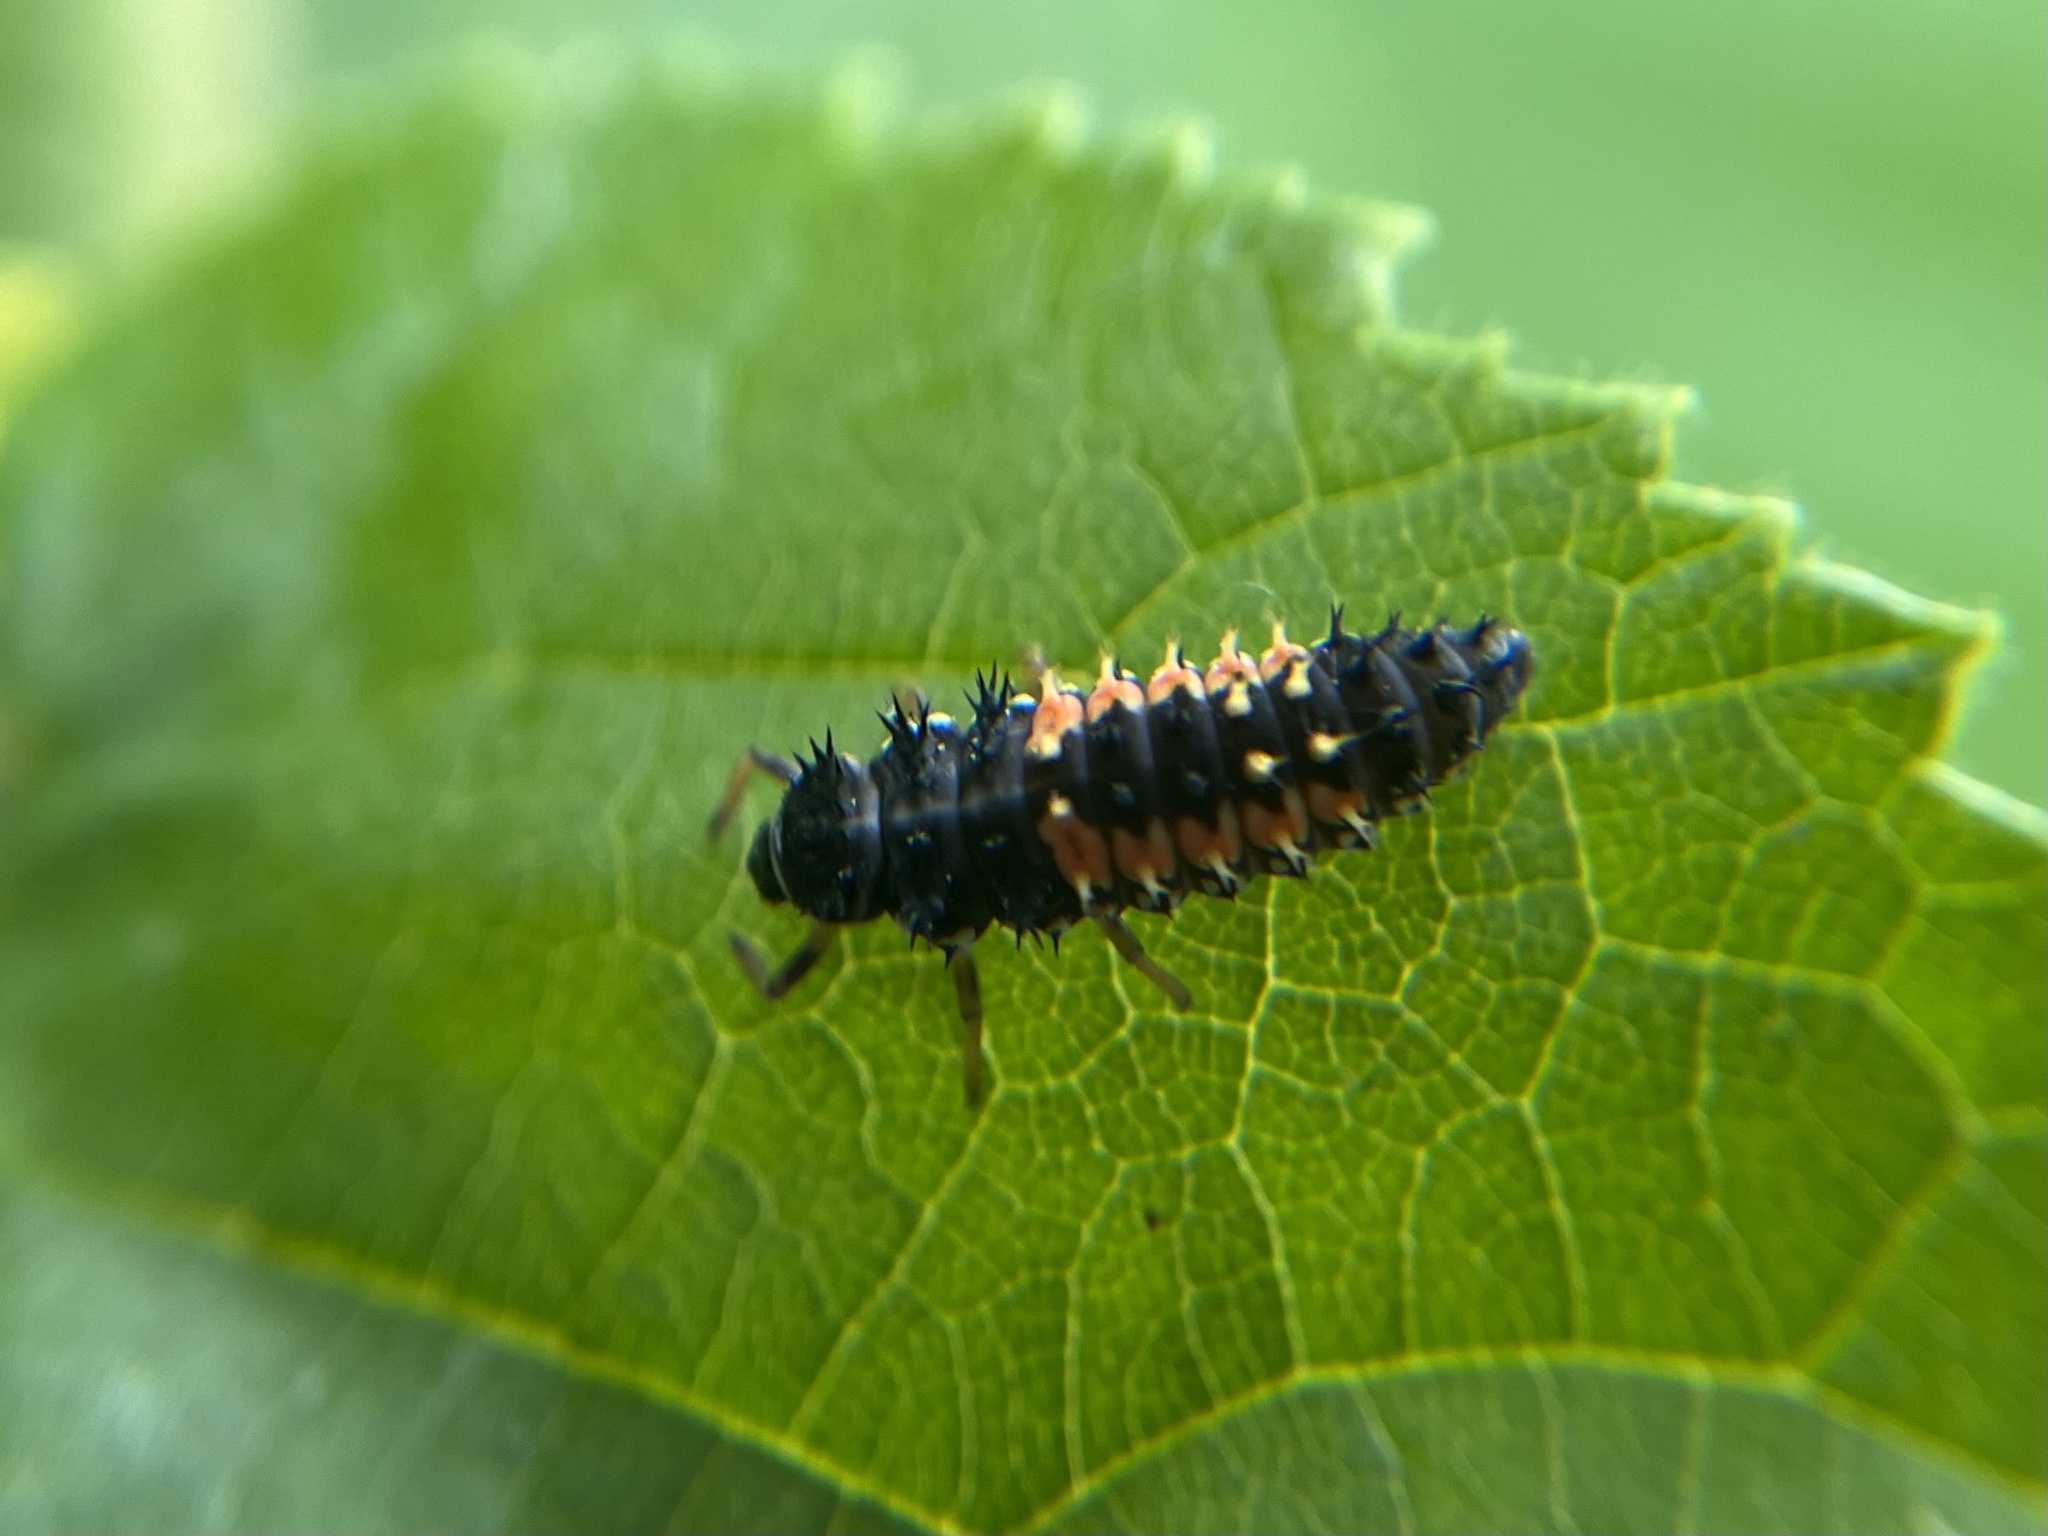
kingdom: Animalia
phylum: Arthropoda
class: Insecta
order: Coleoptera
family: Coccinellidae
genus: Harmonia
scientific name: Harmonia axyridis
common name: Harlequin ladybird
